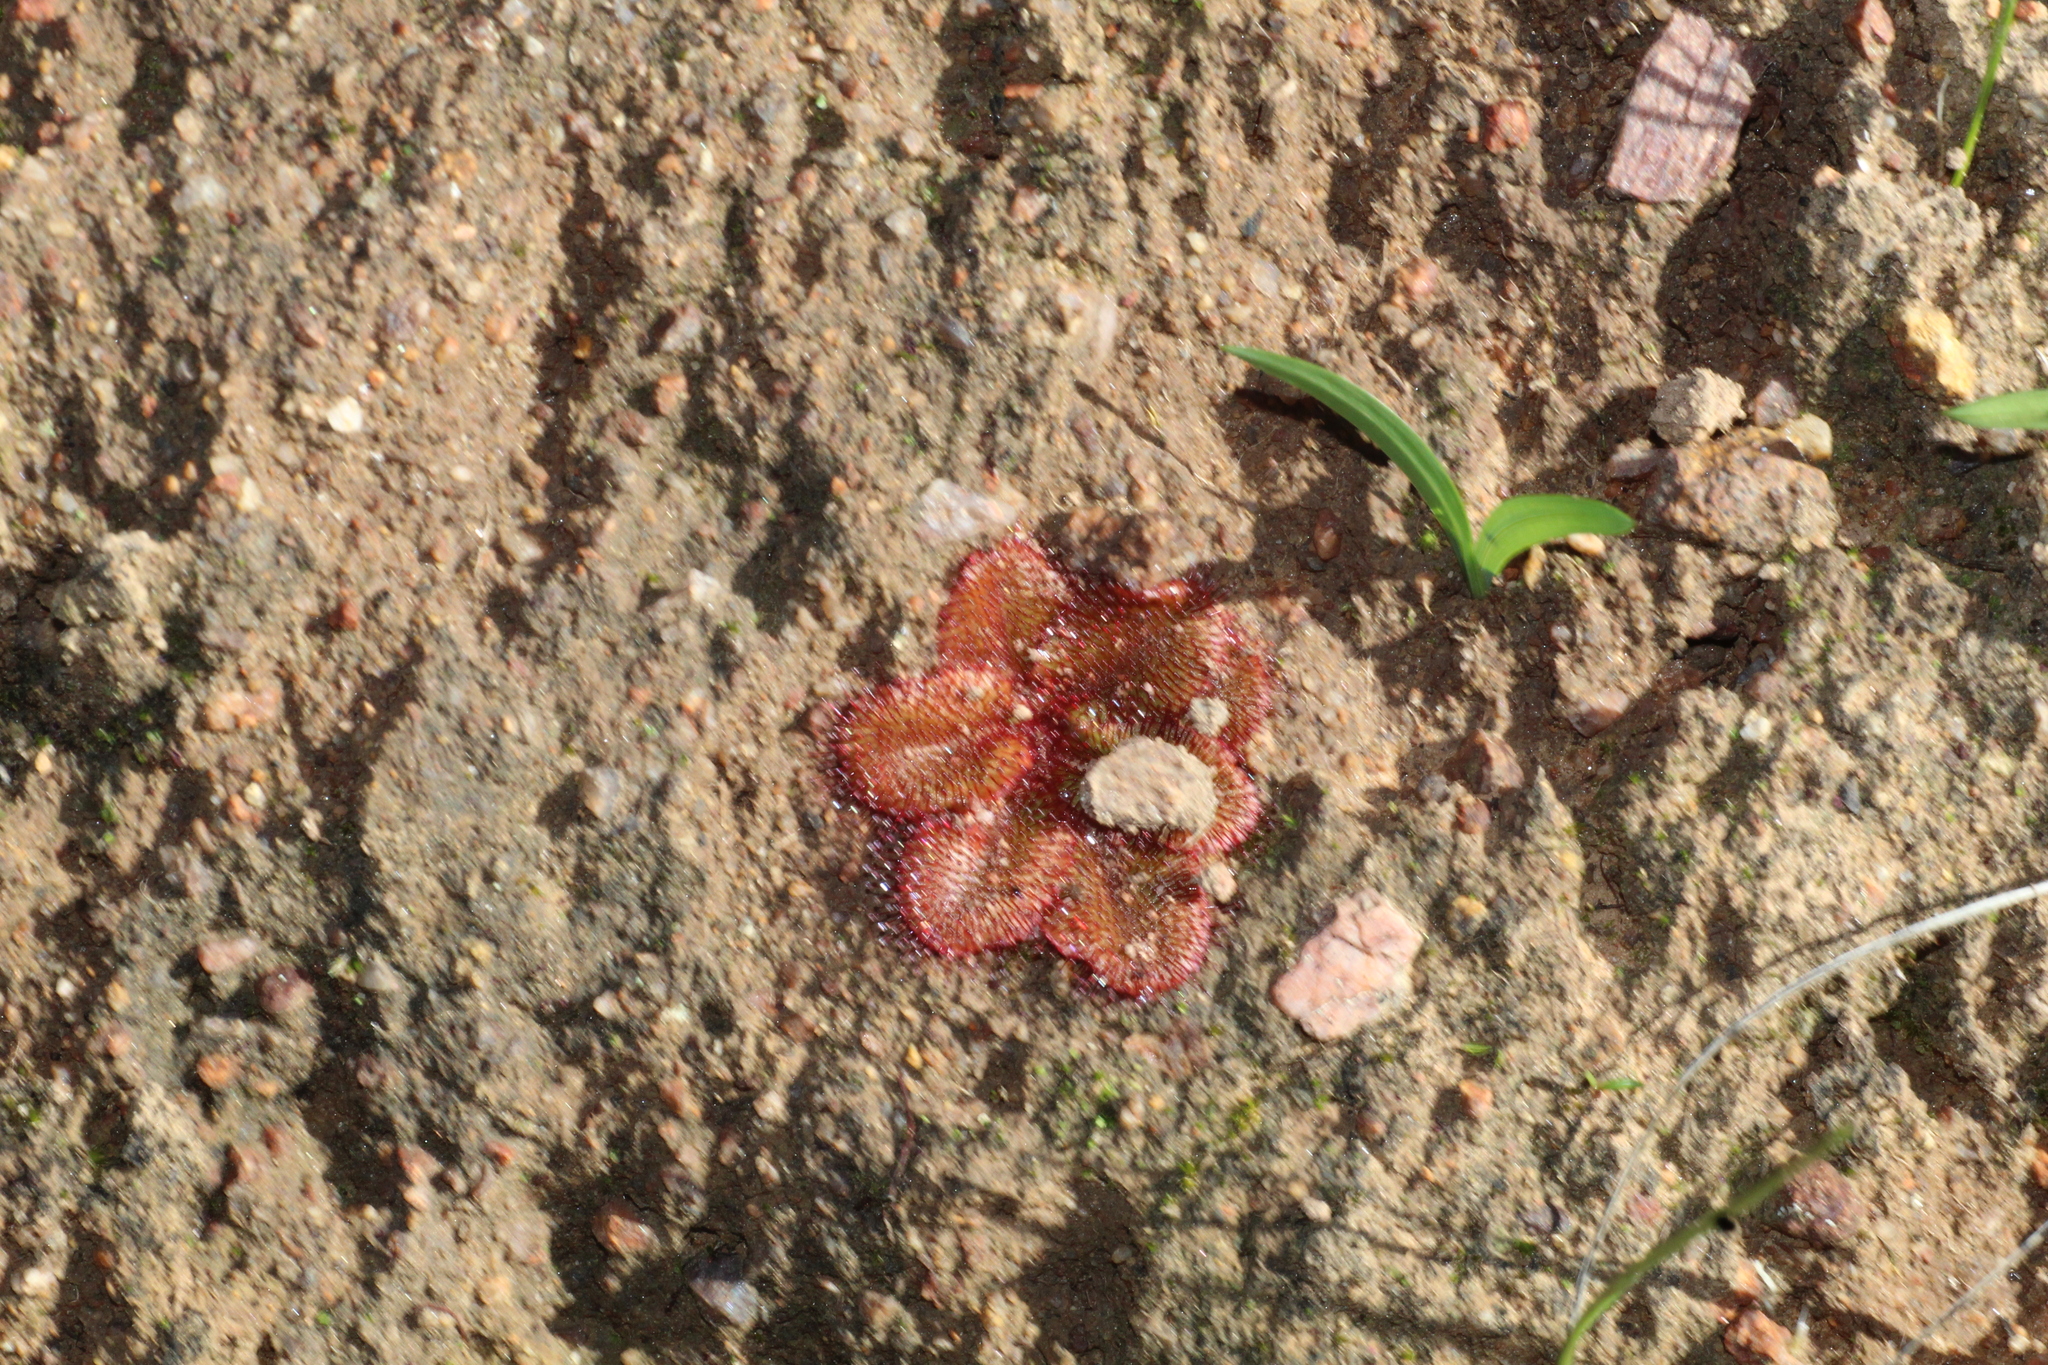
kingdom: Plantae
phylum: Tracheophyta
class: Magnoliopsida
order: Caryophyllales
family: Droseraceae
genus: Drosera
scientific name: Drosera rosulata
